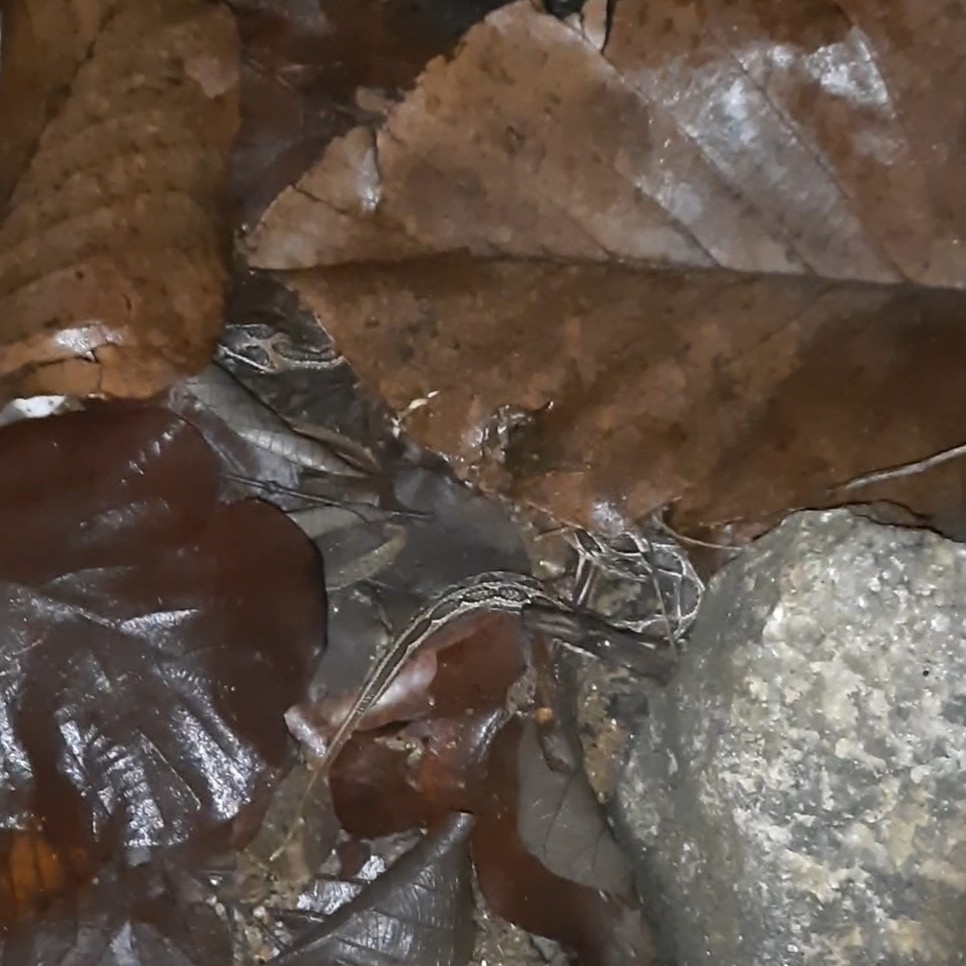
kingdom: Animalia
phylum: Chordata
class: Squamata
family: Viperidae
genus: Daboia
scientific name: Daboia russelii
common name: Western russel’s viper
